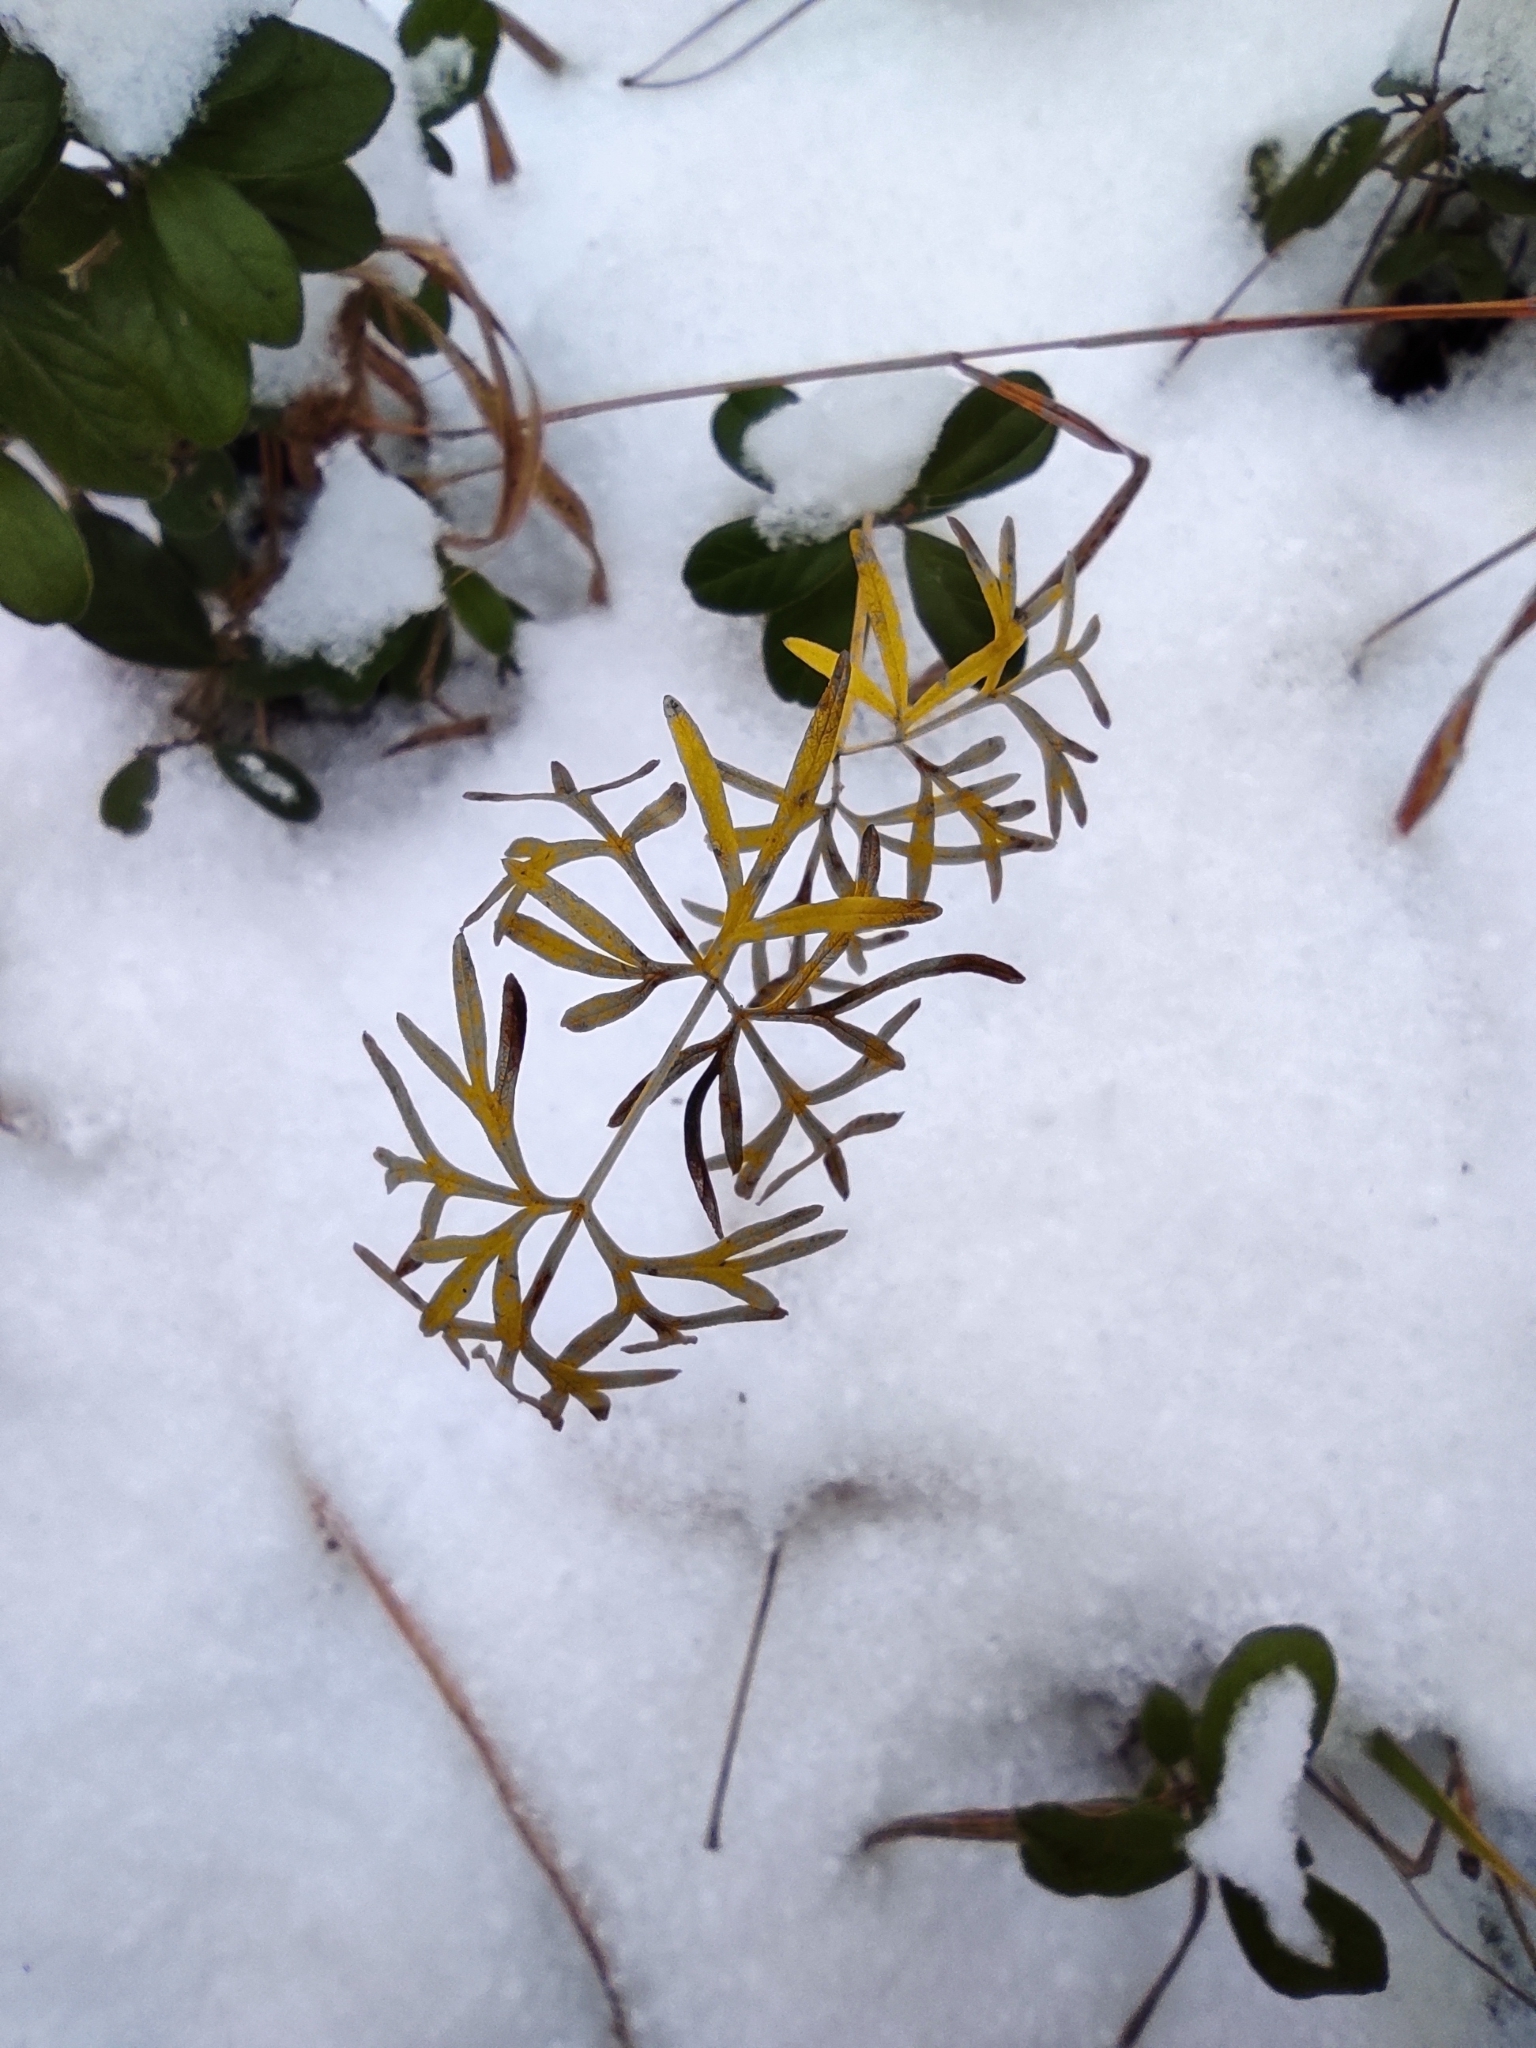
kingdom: Plantae
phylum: Tracheophyta
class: Magnoliopsida
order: Apiales
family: Apiaceae
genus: Kadenia
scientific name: Kadenia dubia
